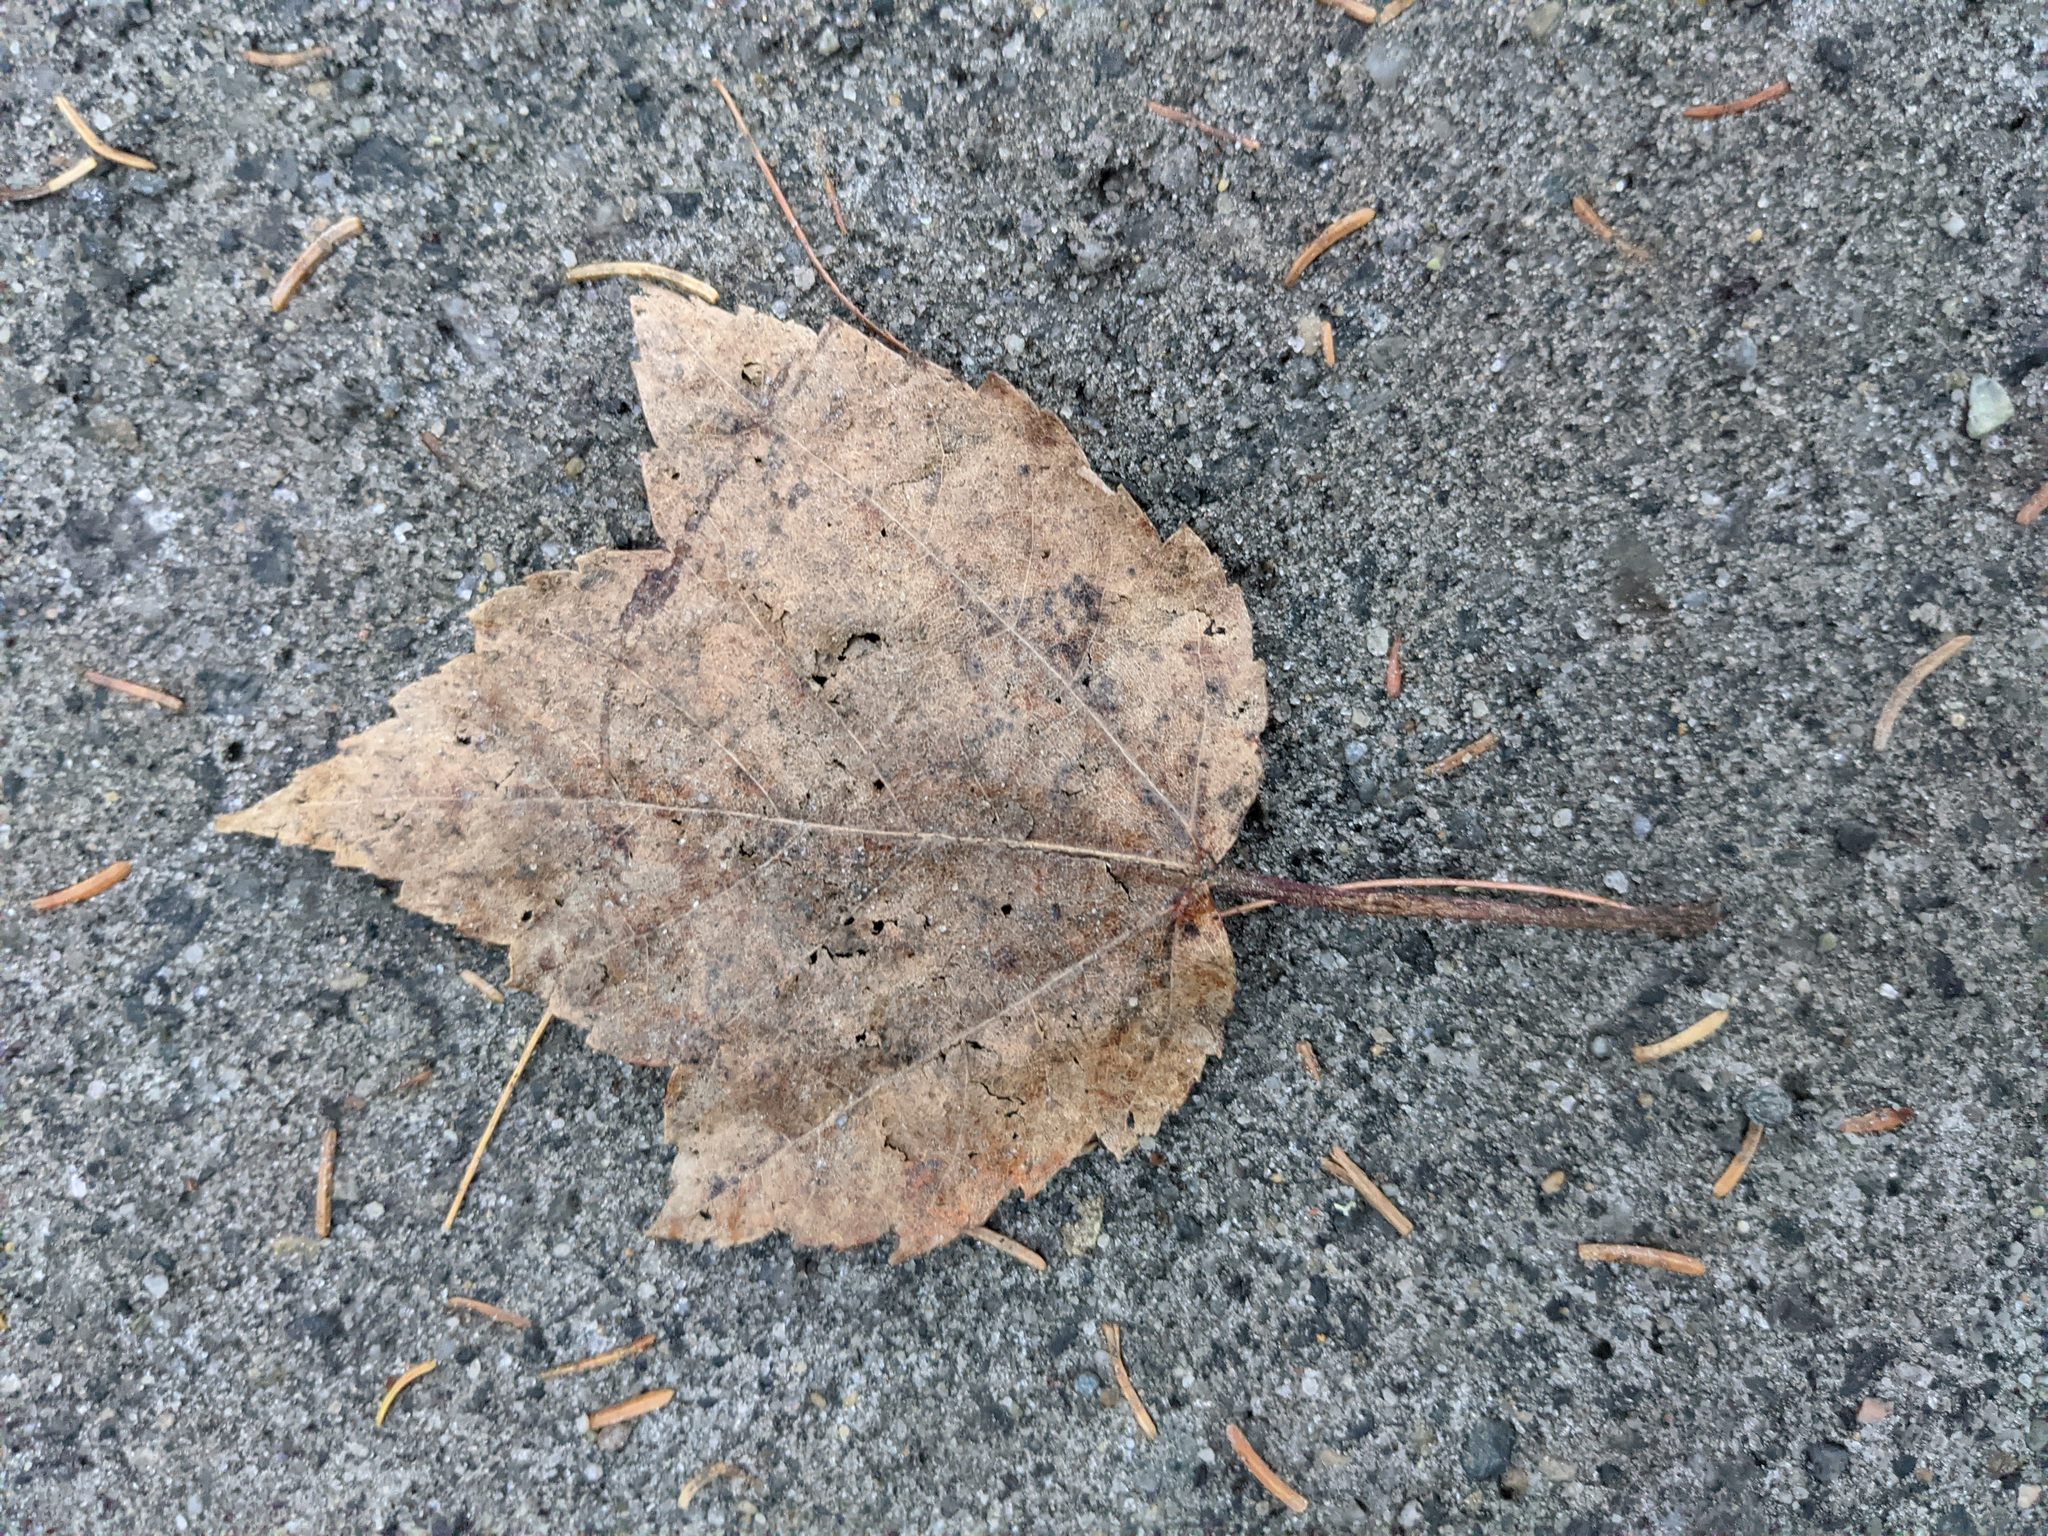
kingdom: Plantae
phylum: Tracheophyta
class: Magnoliopsida
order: Sapindales
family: Sapindaceae
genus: Acer
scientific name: Acer rubrum
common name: Red maple
